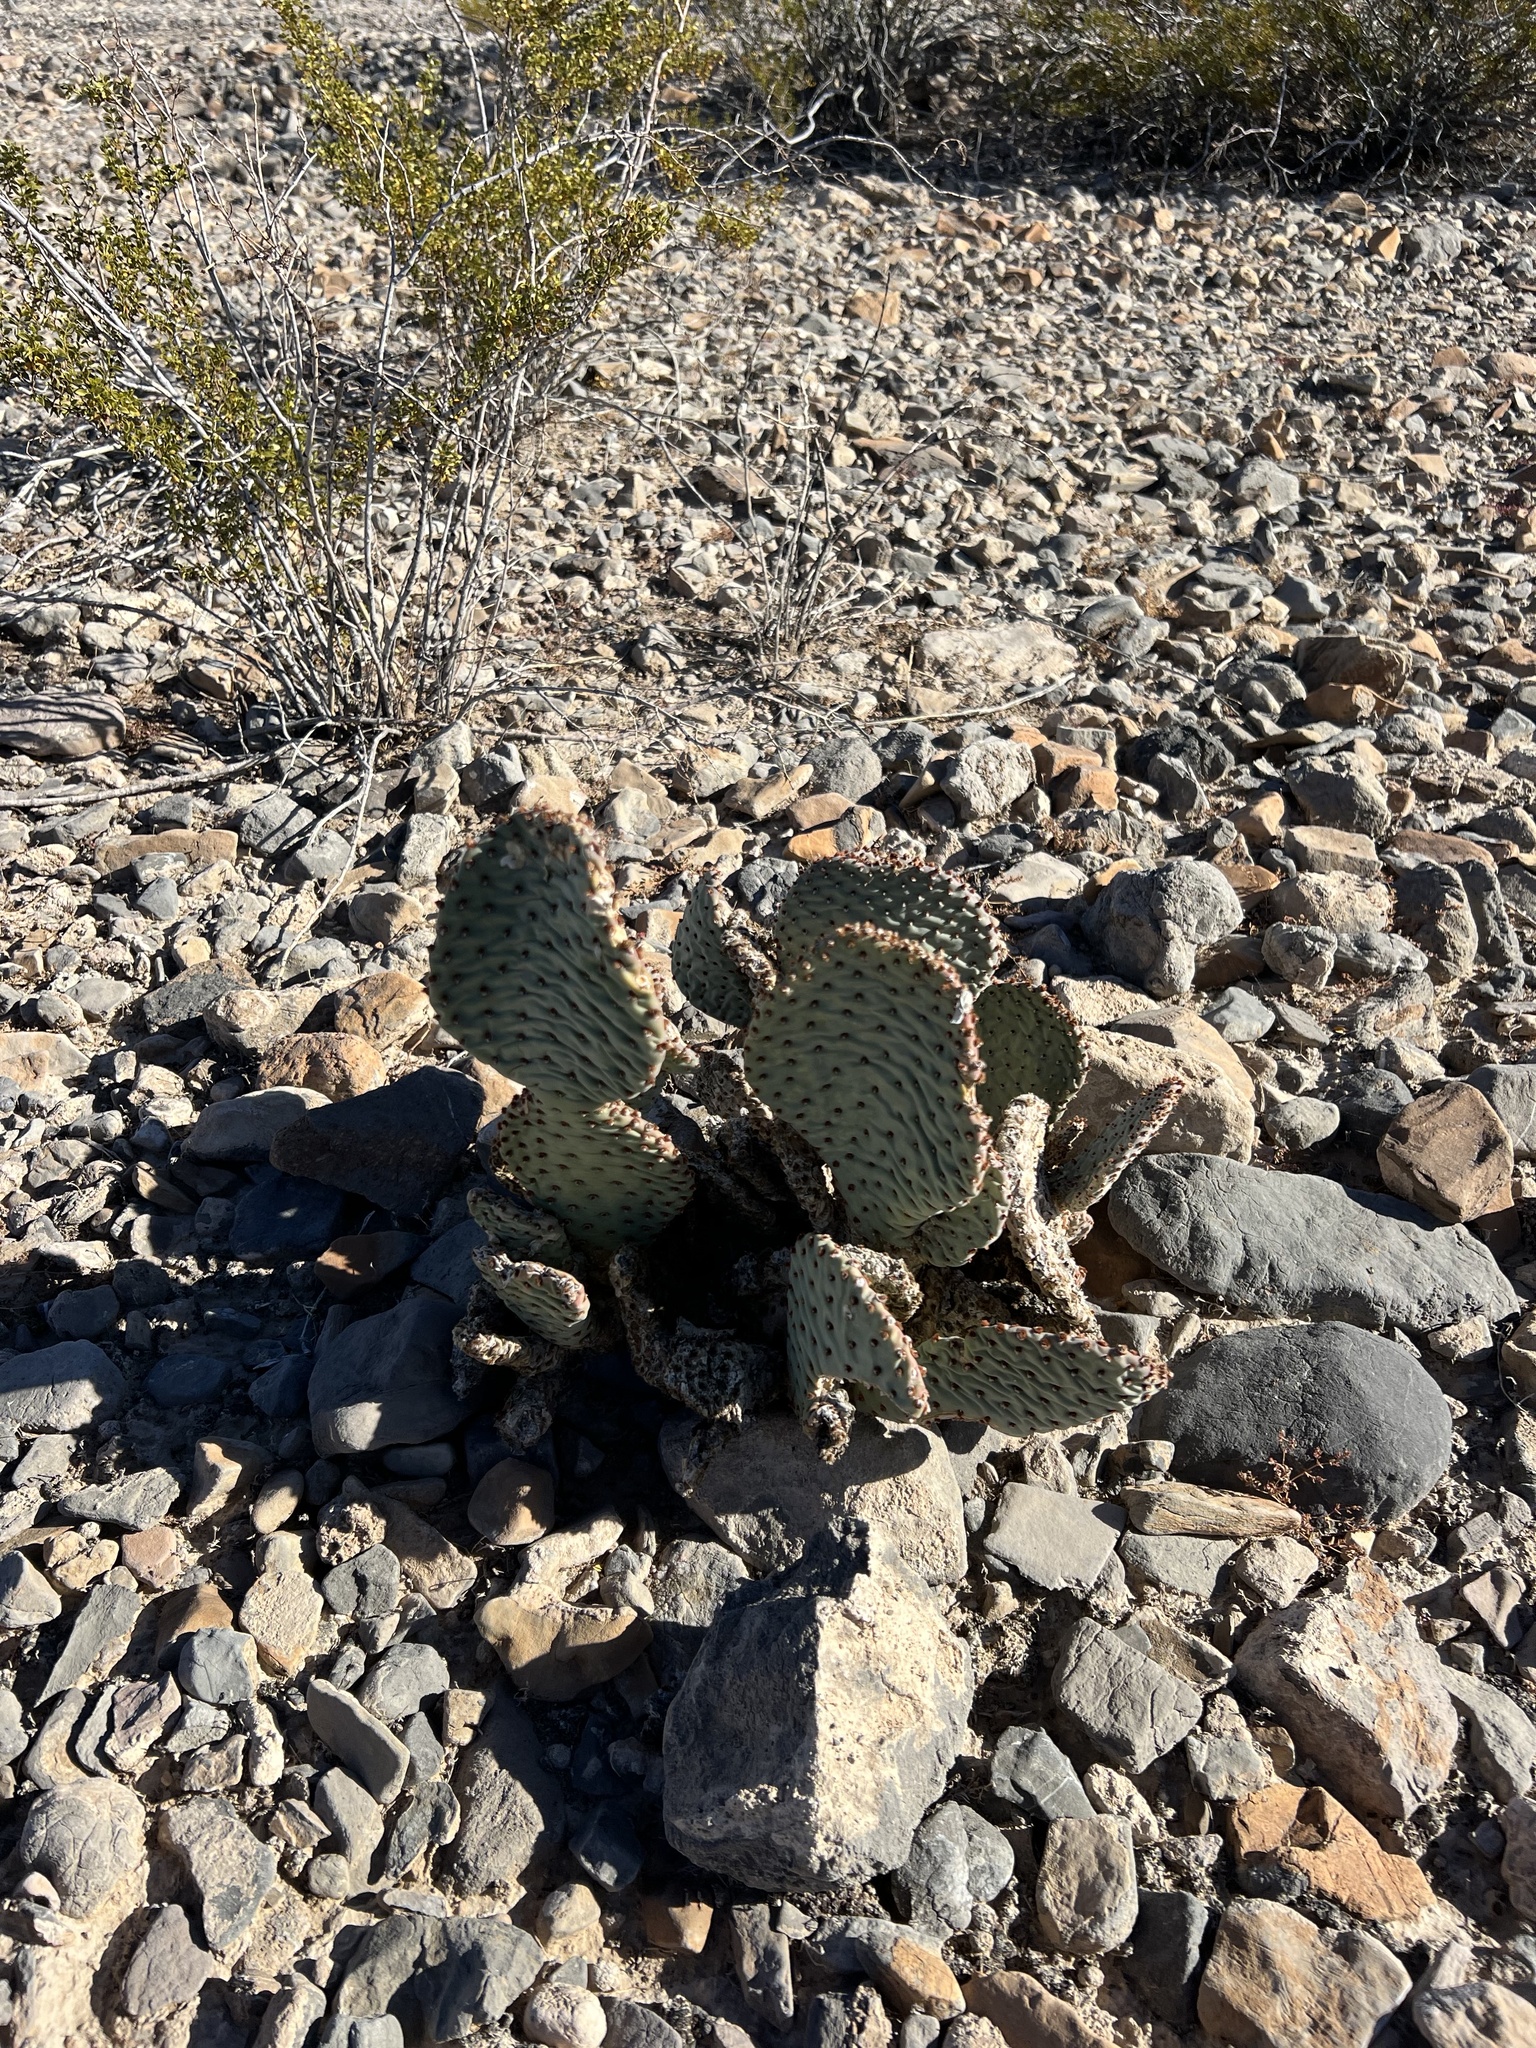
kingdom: Plantae
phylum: Tracheophyta
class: Magnoliopsida
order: Caryophyllales
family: Cactaceae
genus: Opuntia
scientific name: Opuntia basilaris
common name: Beavertail prickly-pear
